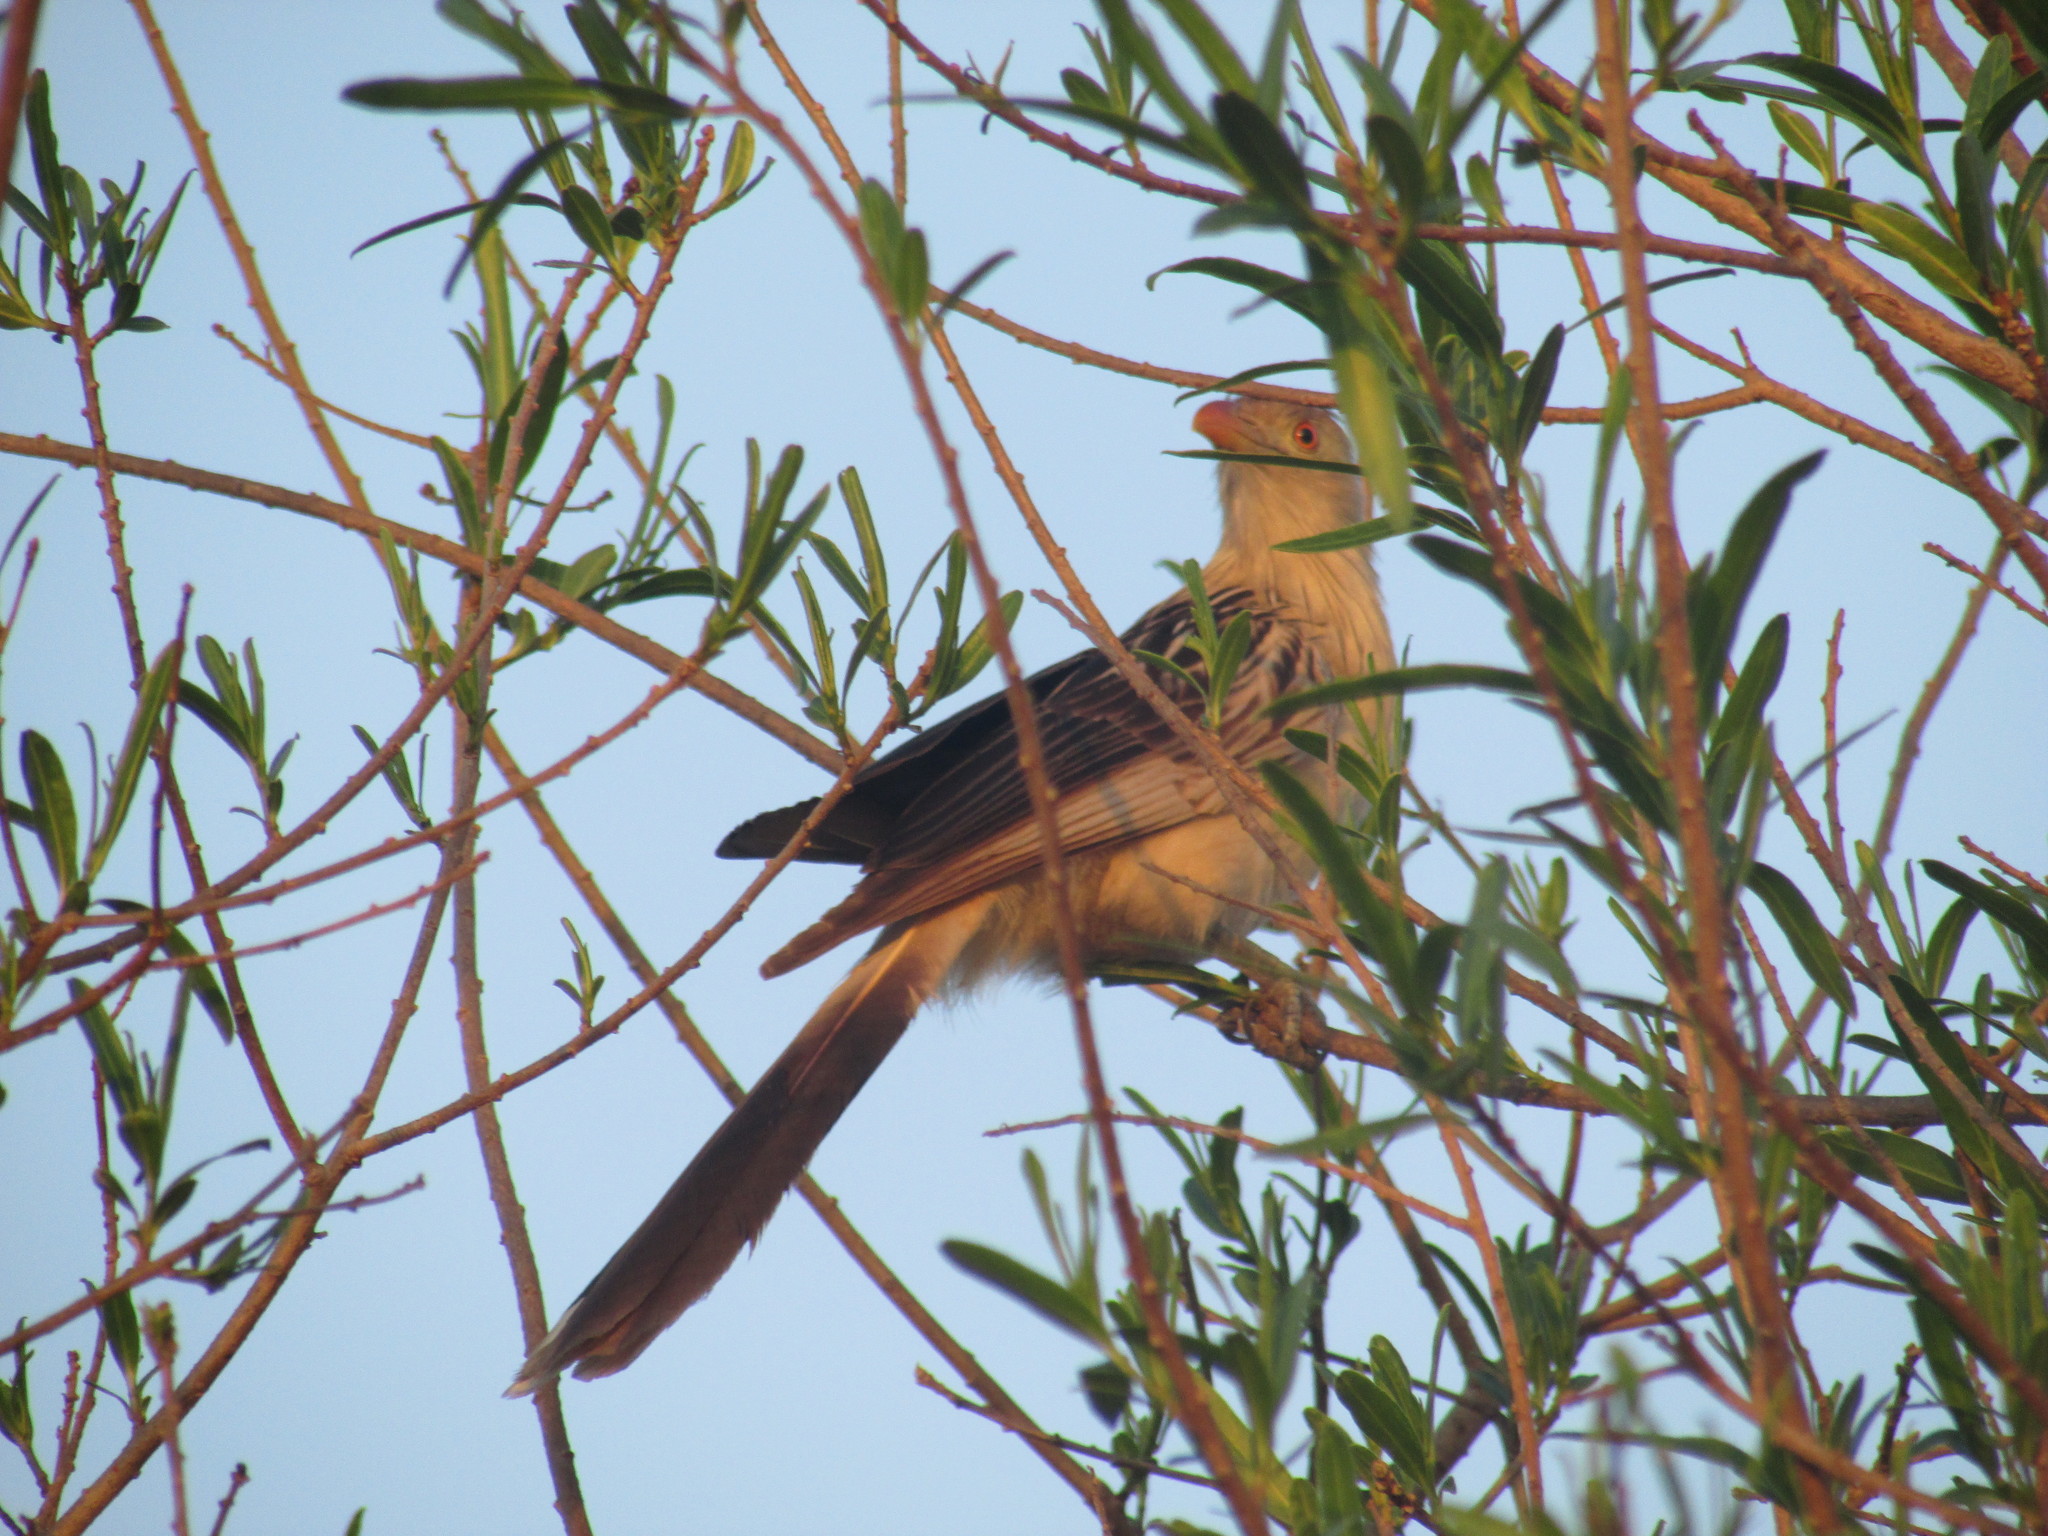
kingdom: Animalia
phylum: Chordata
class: Aves
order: Cuculiformes
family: Cuculidae
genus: Guira
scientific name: Guira guira
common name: Guira cuckoo
